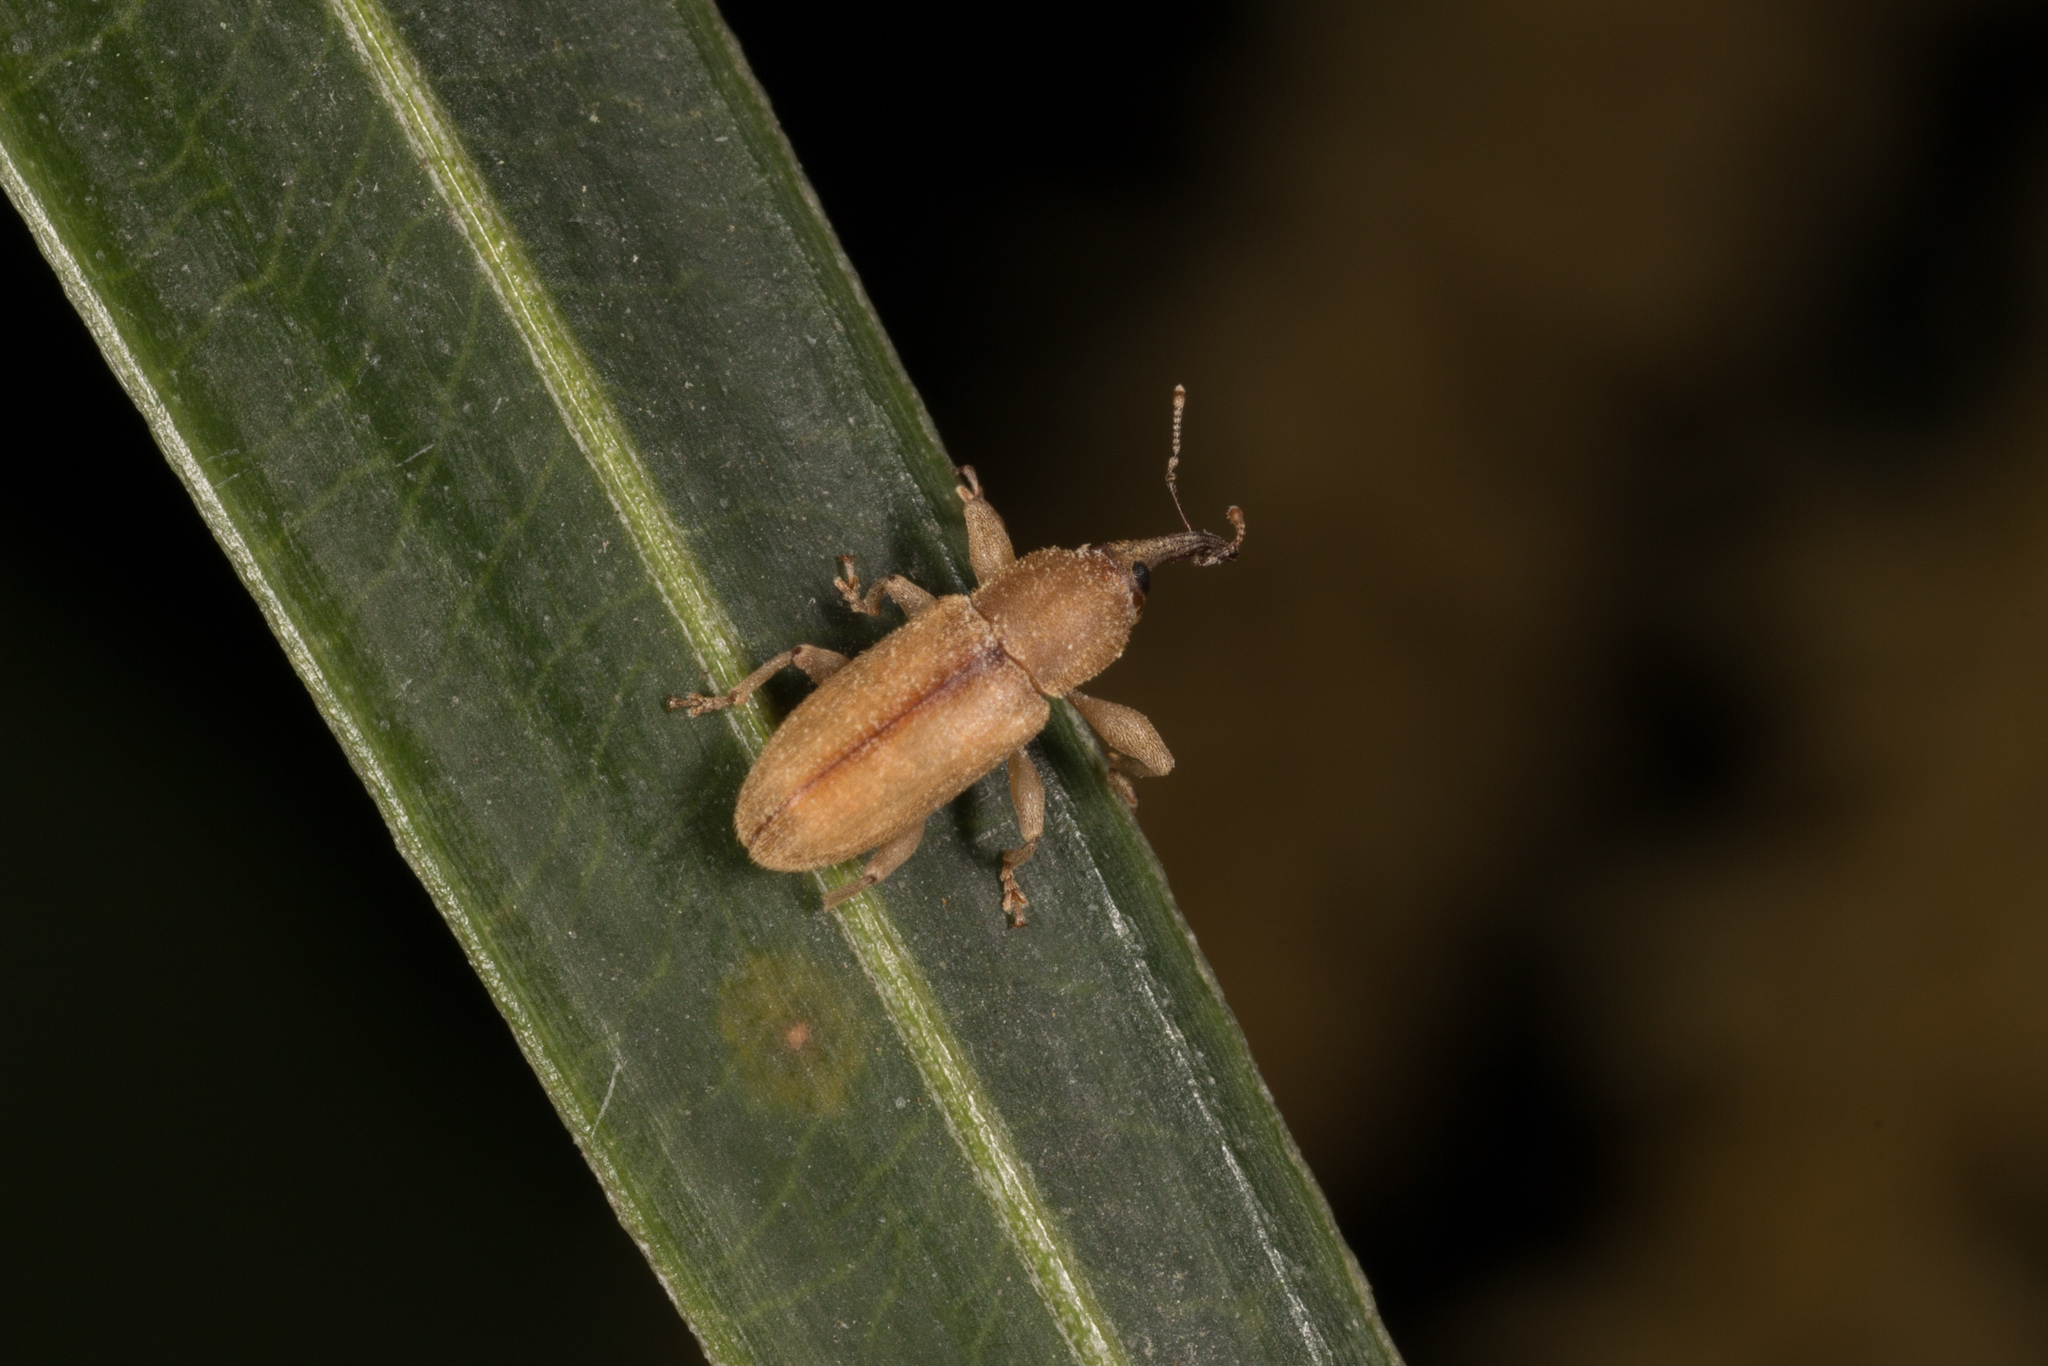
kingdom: Animalia
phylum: Arthropoda
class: Insecta
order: Coleoptera
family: Curculionidae
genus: Celetes
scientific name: Celetes decolor
